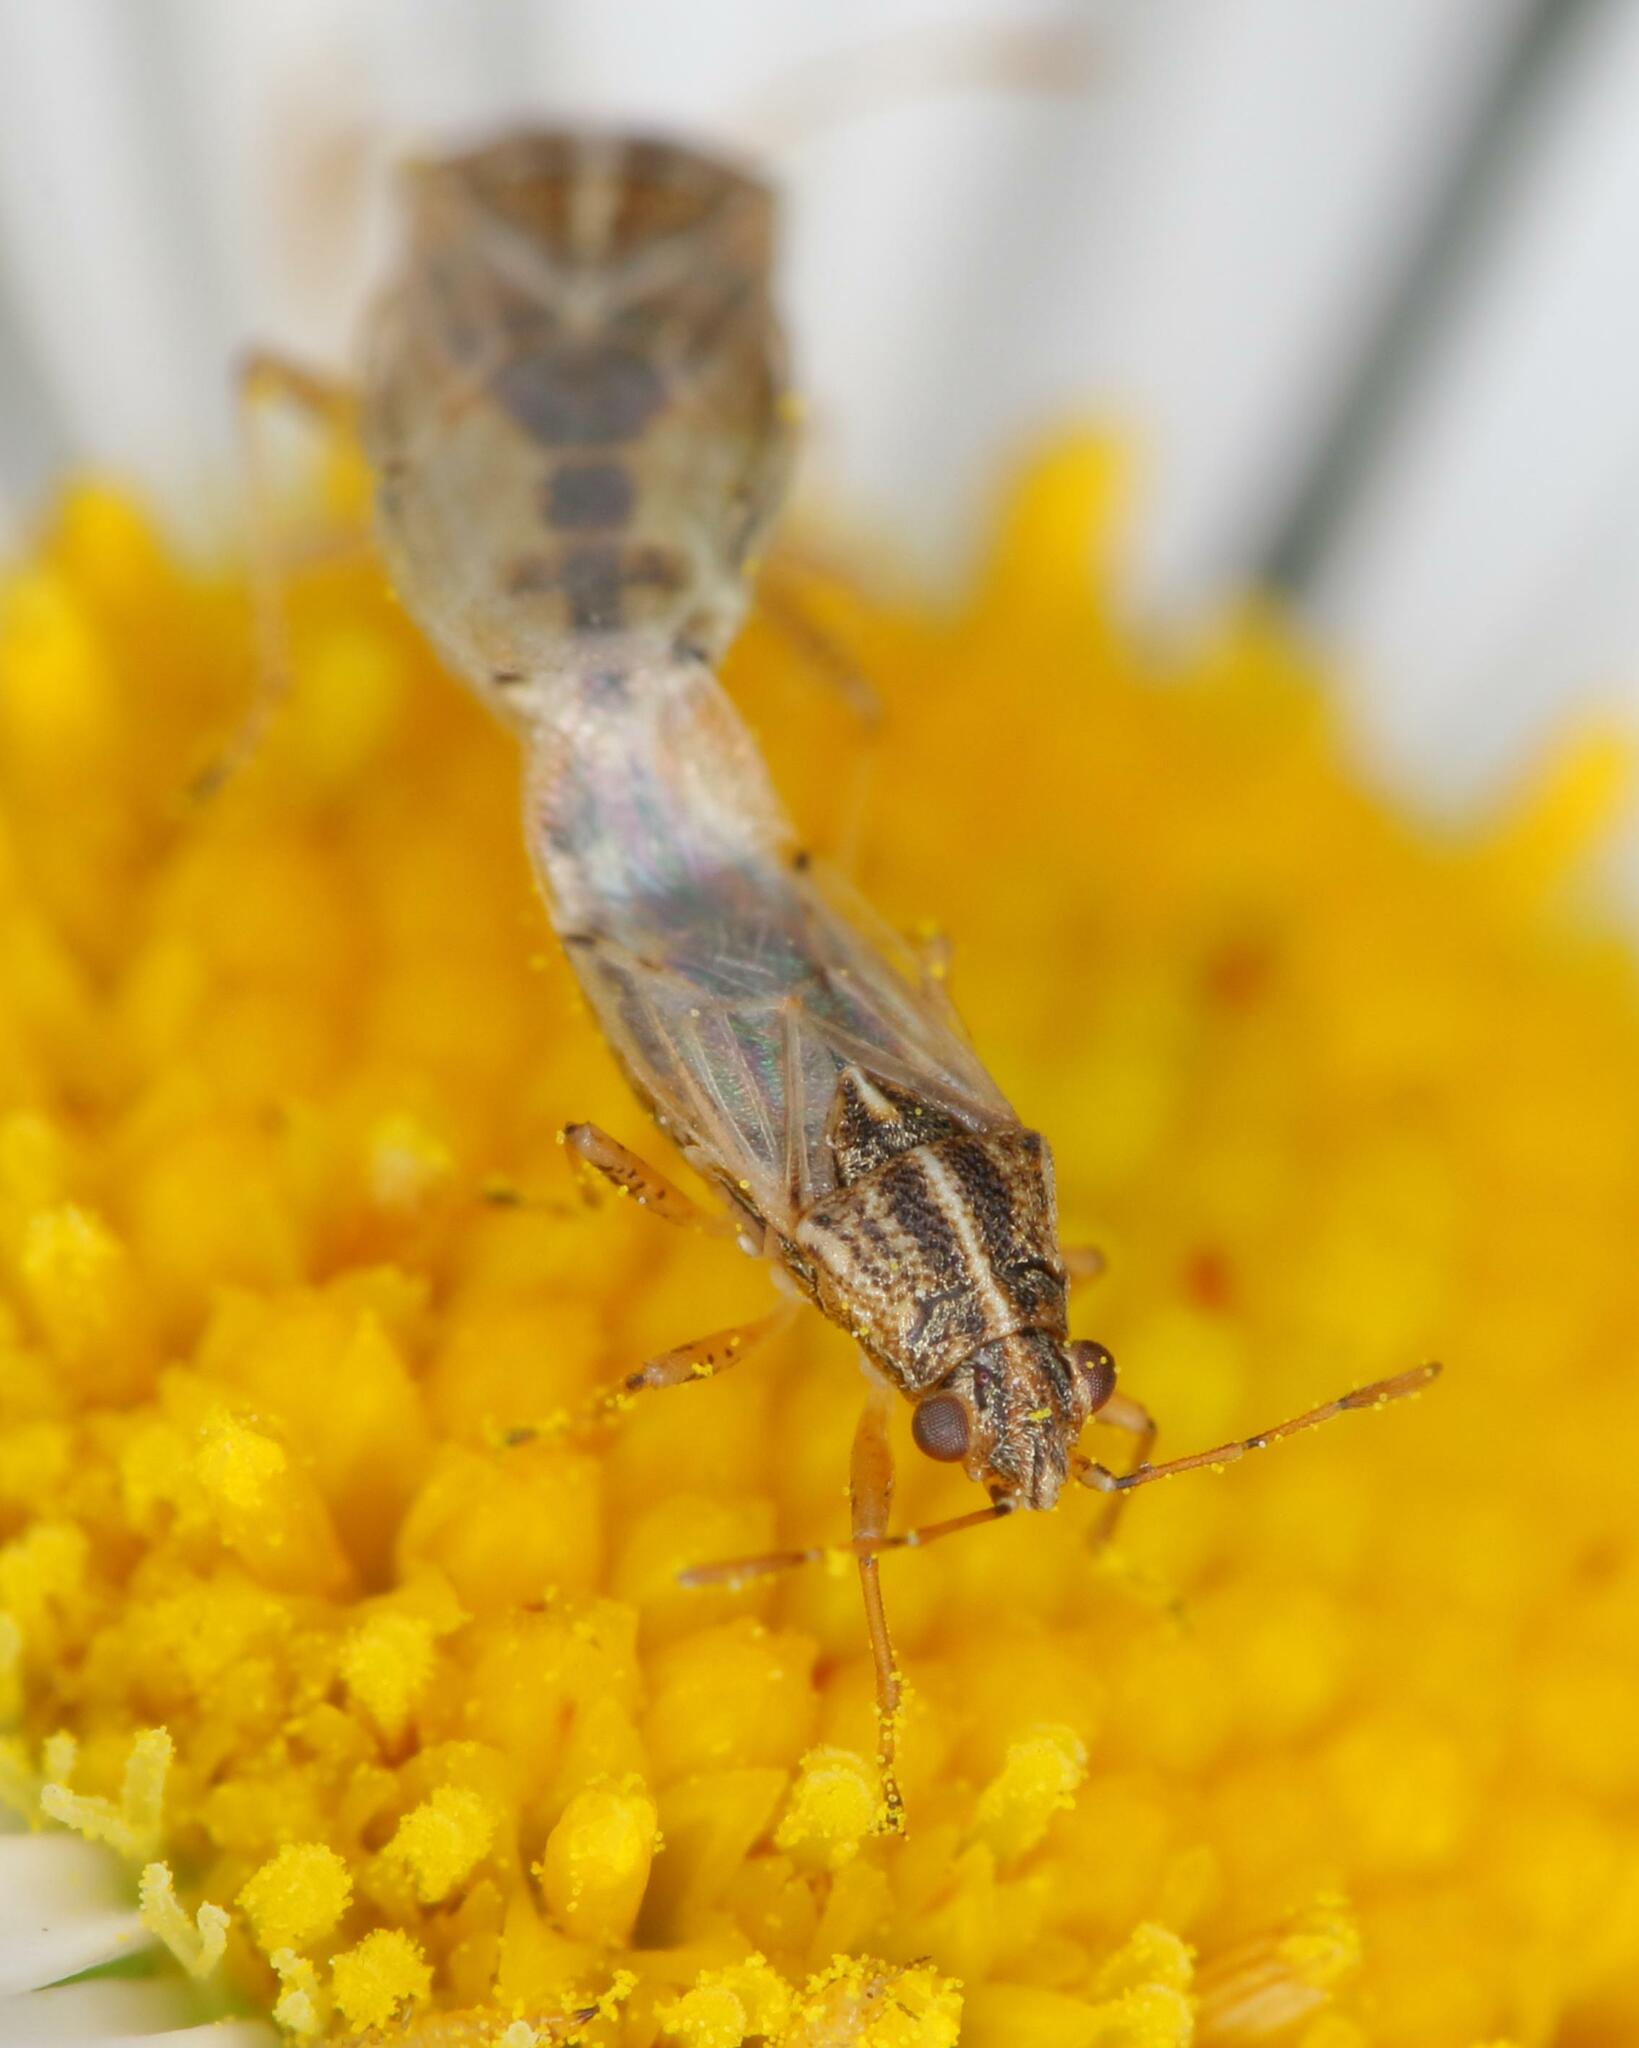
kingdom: Animalia
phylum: Arthropoda
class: Insecta
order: Hemiptera
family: Lygaeidae
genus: Nysius
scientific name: Nysius senecionis
